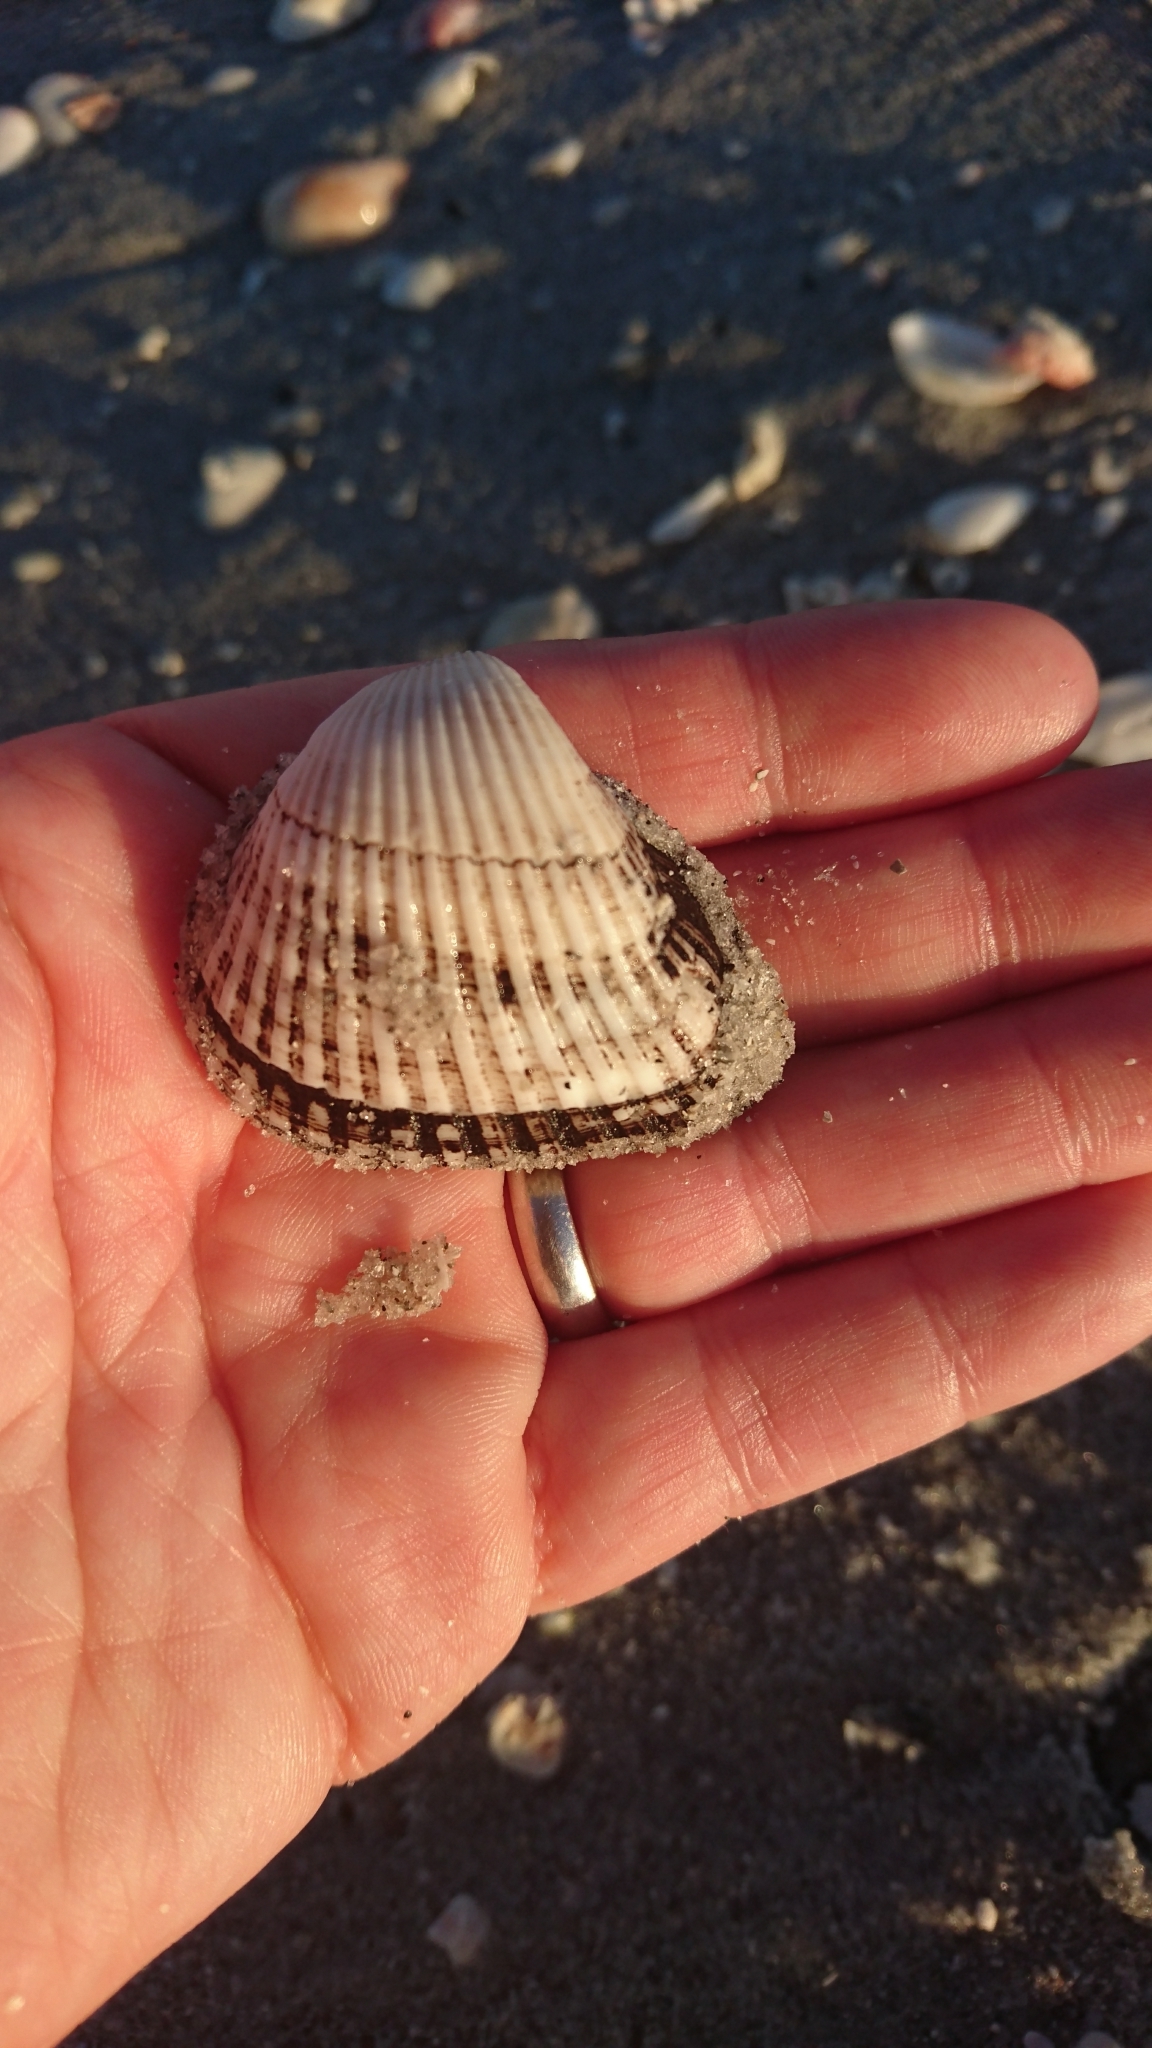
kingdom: Animalia
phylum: Mollusca
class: Bivalvia
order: Arcida
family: Noetiidae
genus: Noetia
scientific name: Noetia ponderosa
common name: Ponderous ark
